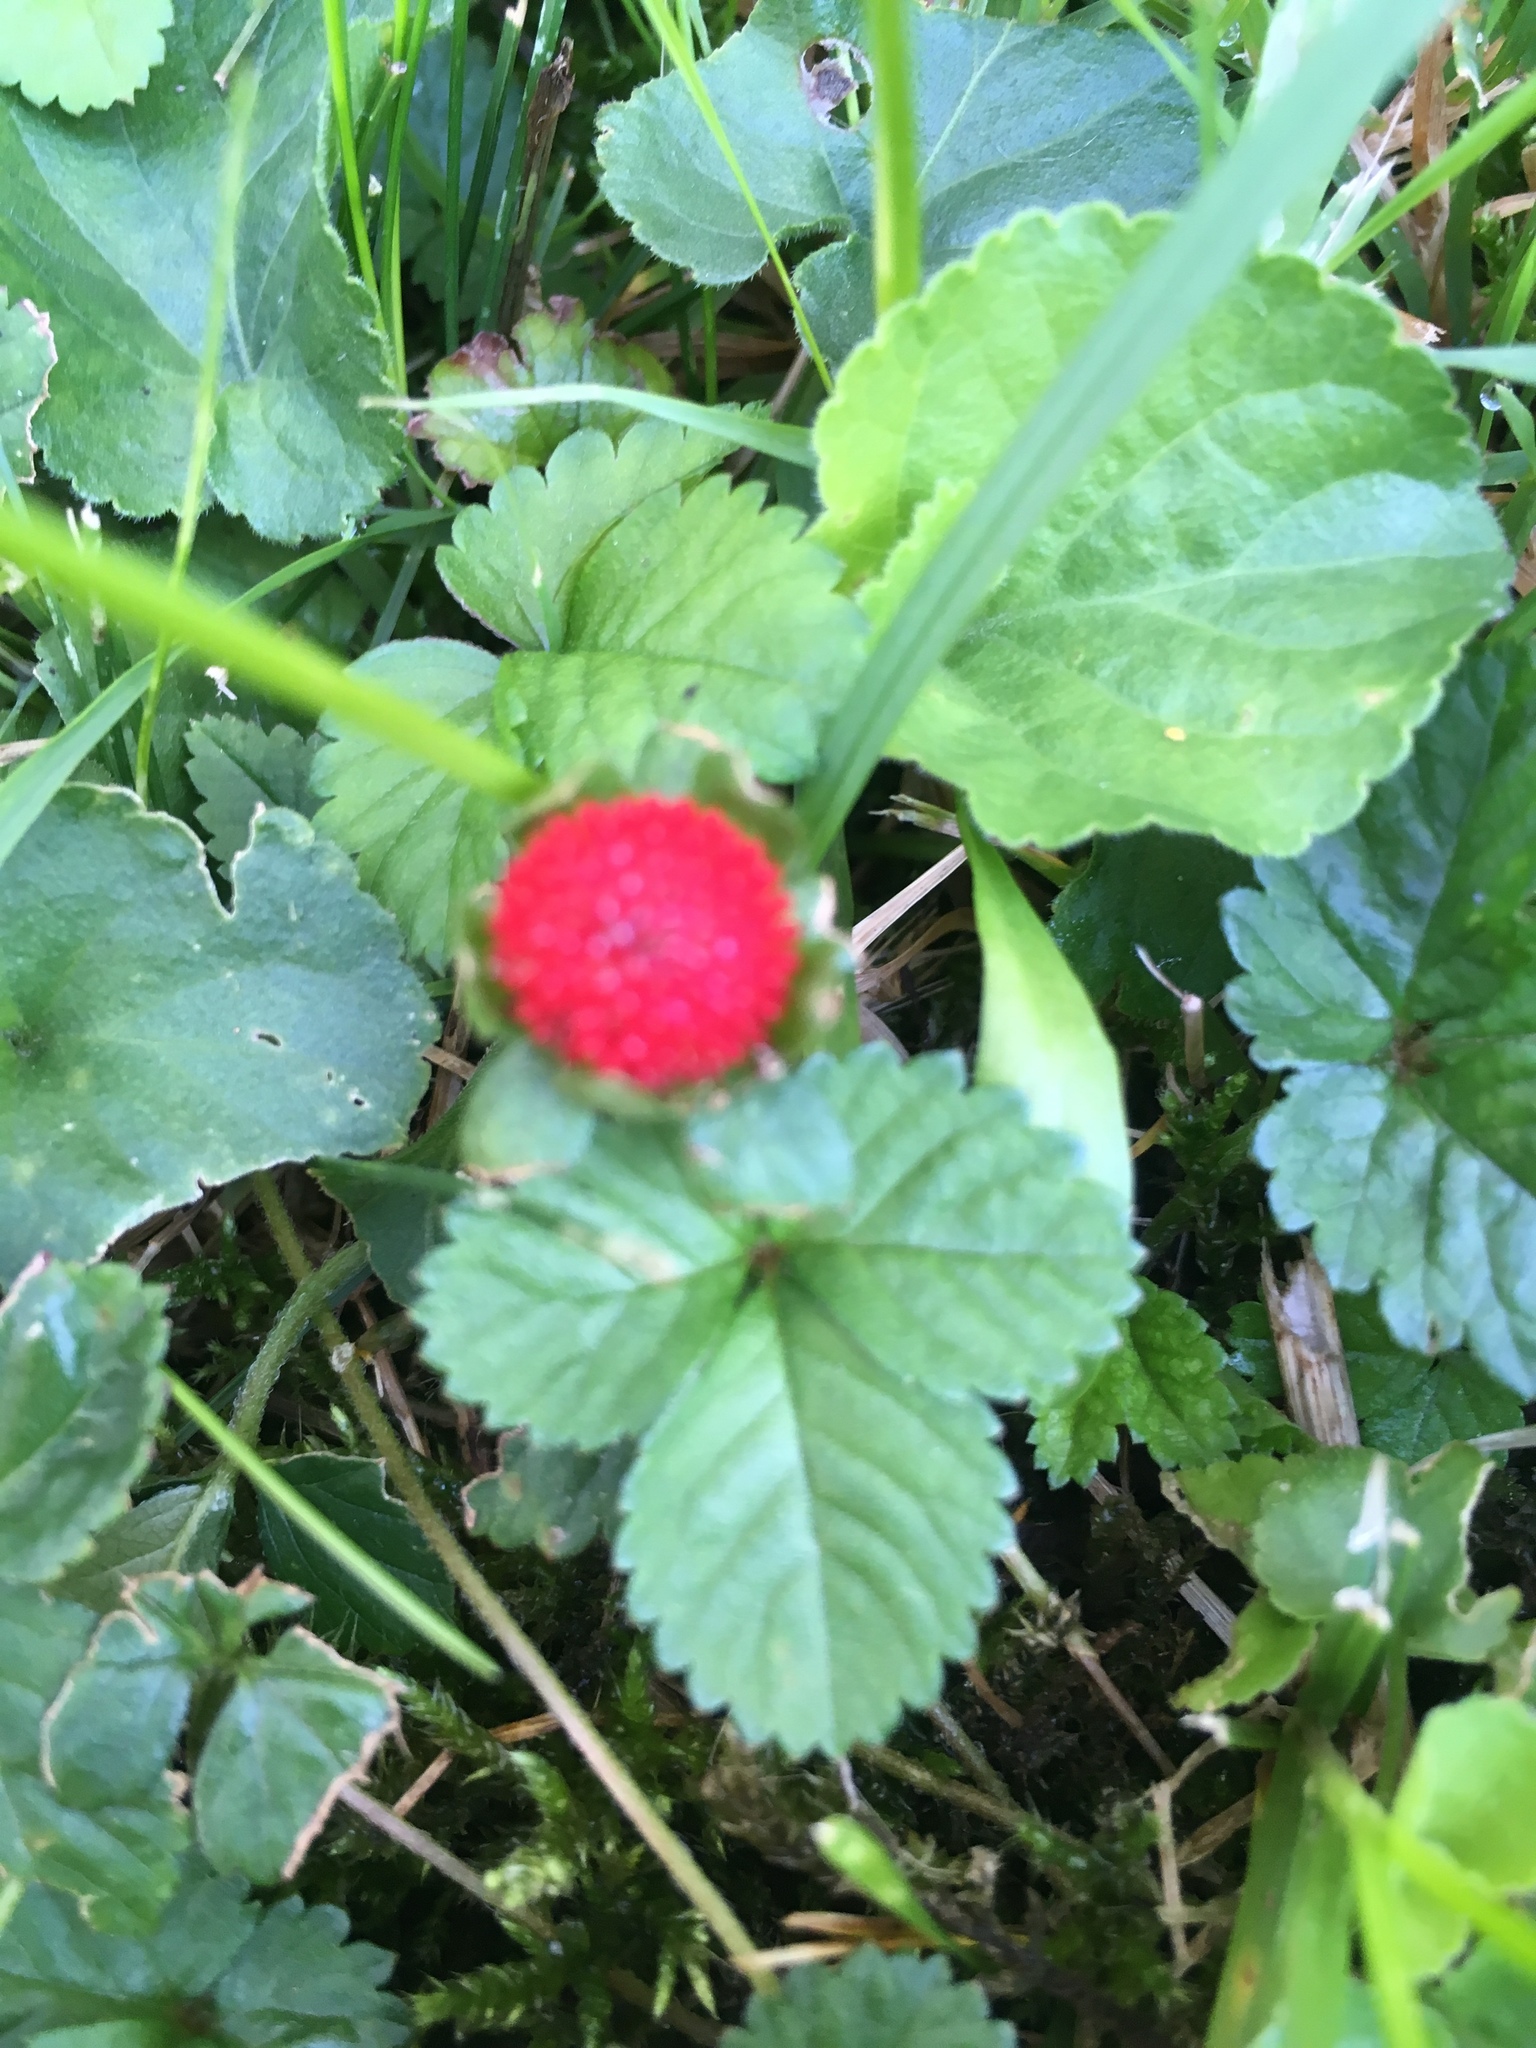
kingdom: Plantae
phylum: Tracheophyta
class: Magnoliopsida
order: Rosales
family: Rosaceae
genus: Potentilla
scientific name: Potentilla indica
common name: Yellow-flowered strawberry
